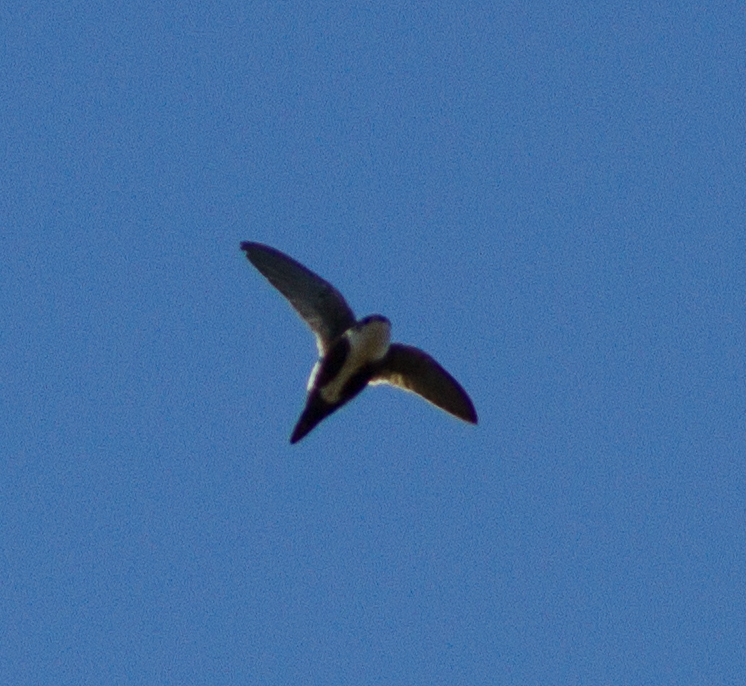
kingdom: Animalia
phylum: Chordata
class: Aves
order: Apodiformes
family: Apodidae
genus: Aeronautes
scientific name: Aeronautes saxatalis
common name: White-throated swift
